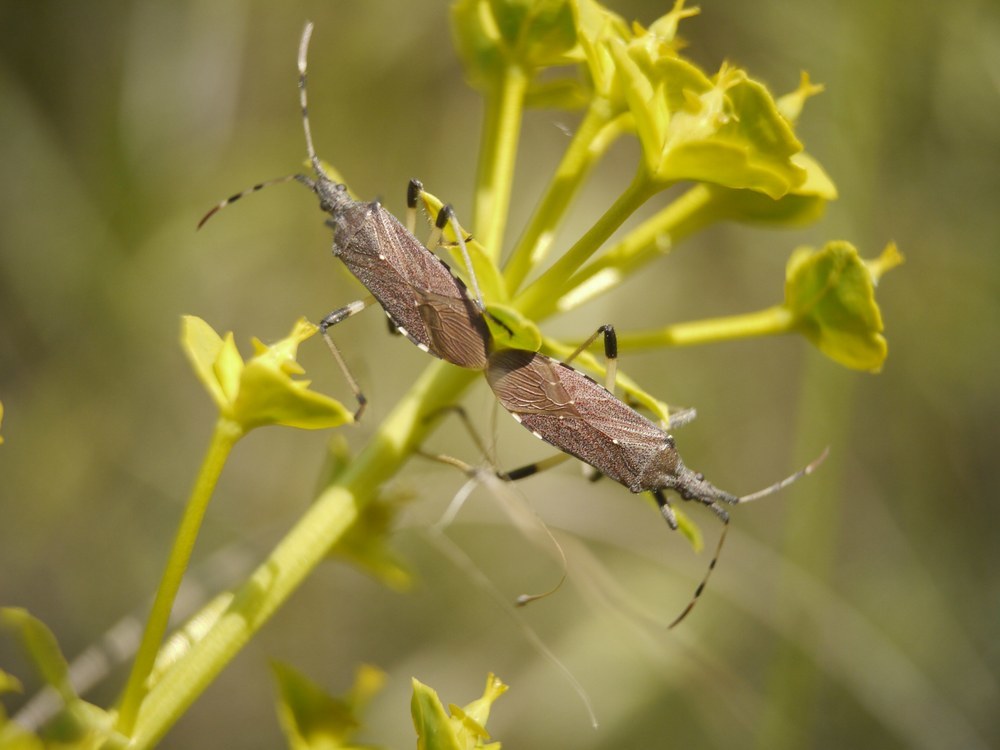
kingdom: Animalia
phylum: Arthropoda
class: Insecta
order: Hemiptera
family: Stenocephalidae
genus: Dicranocephalus
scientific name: Dicranocephalus albipes
